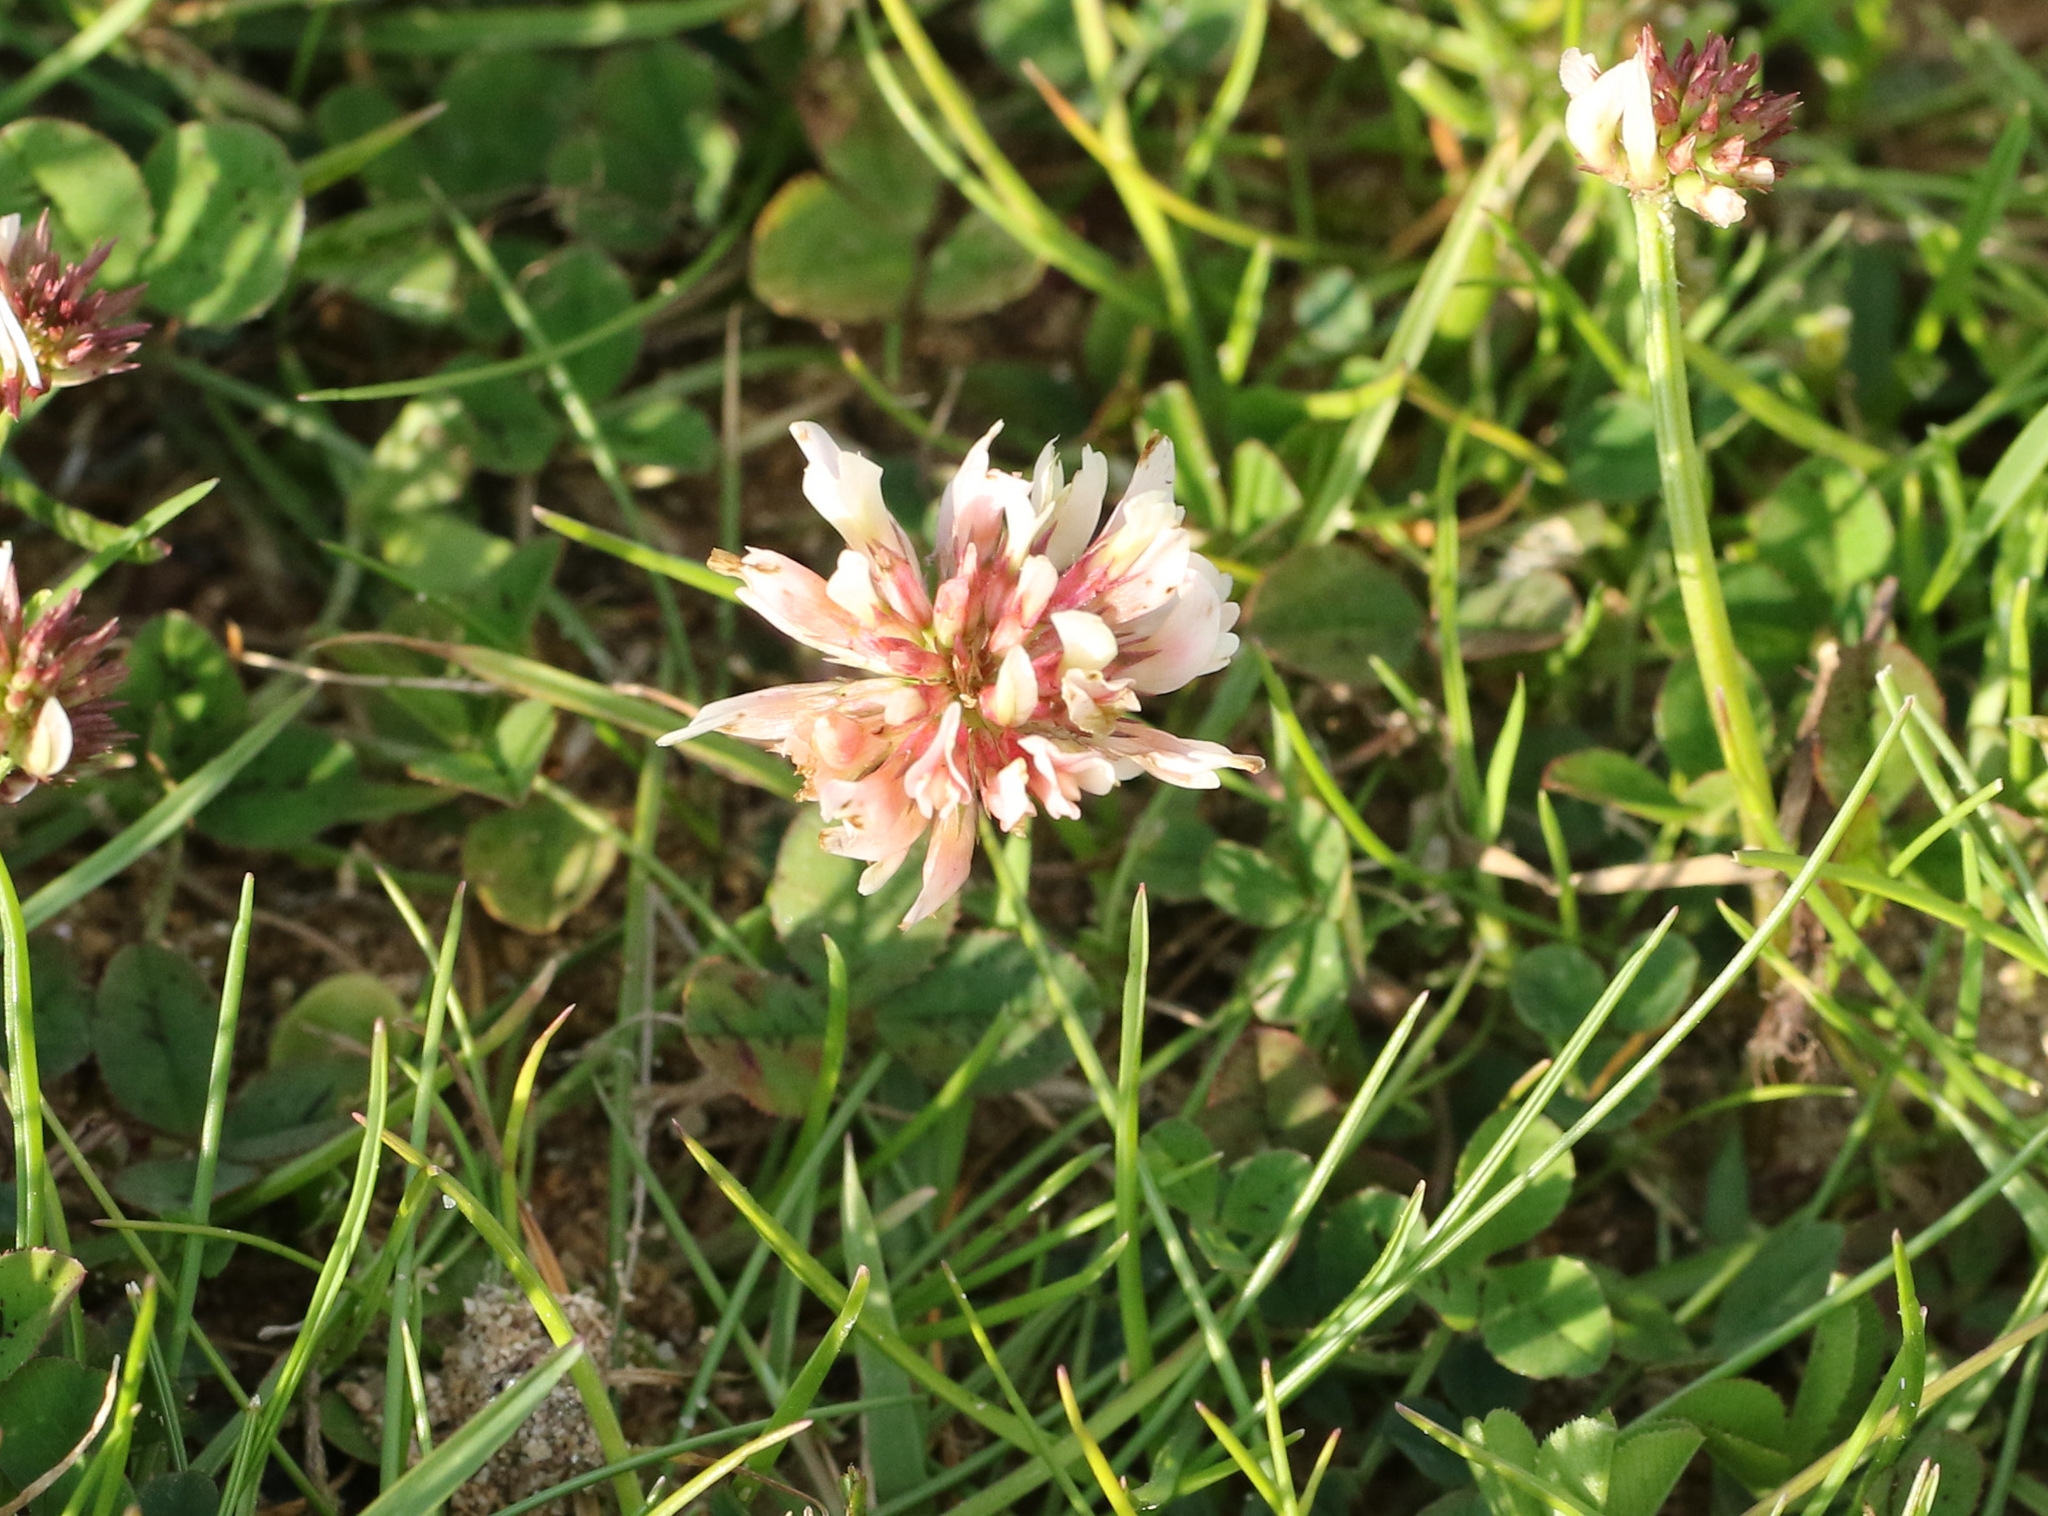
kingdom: Plantae
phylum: Tracheophyta
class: Magnoliopsida
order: Fabales
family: Fabaceae
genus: Trifolium
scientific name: Trifolium repens
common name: White clover
